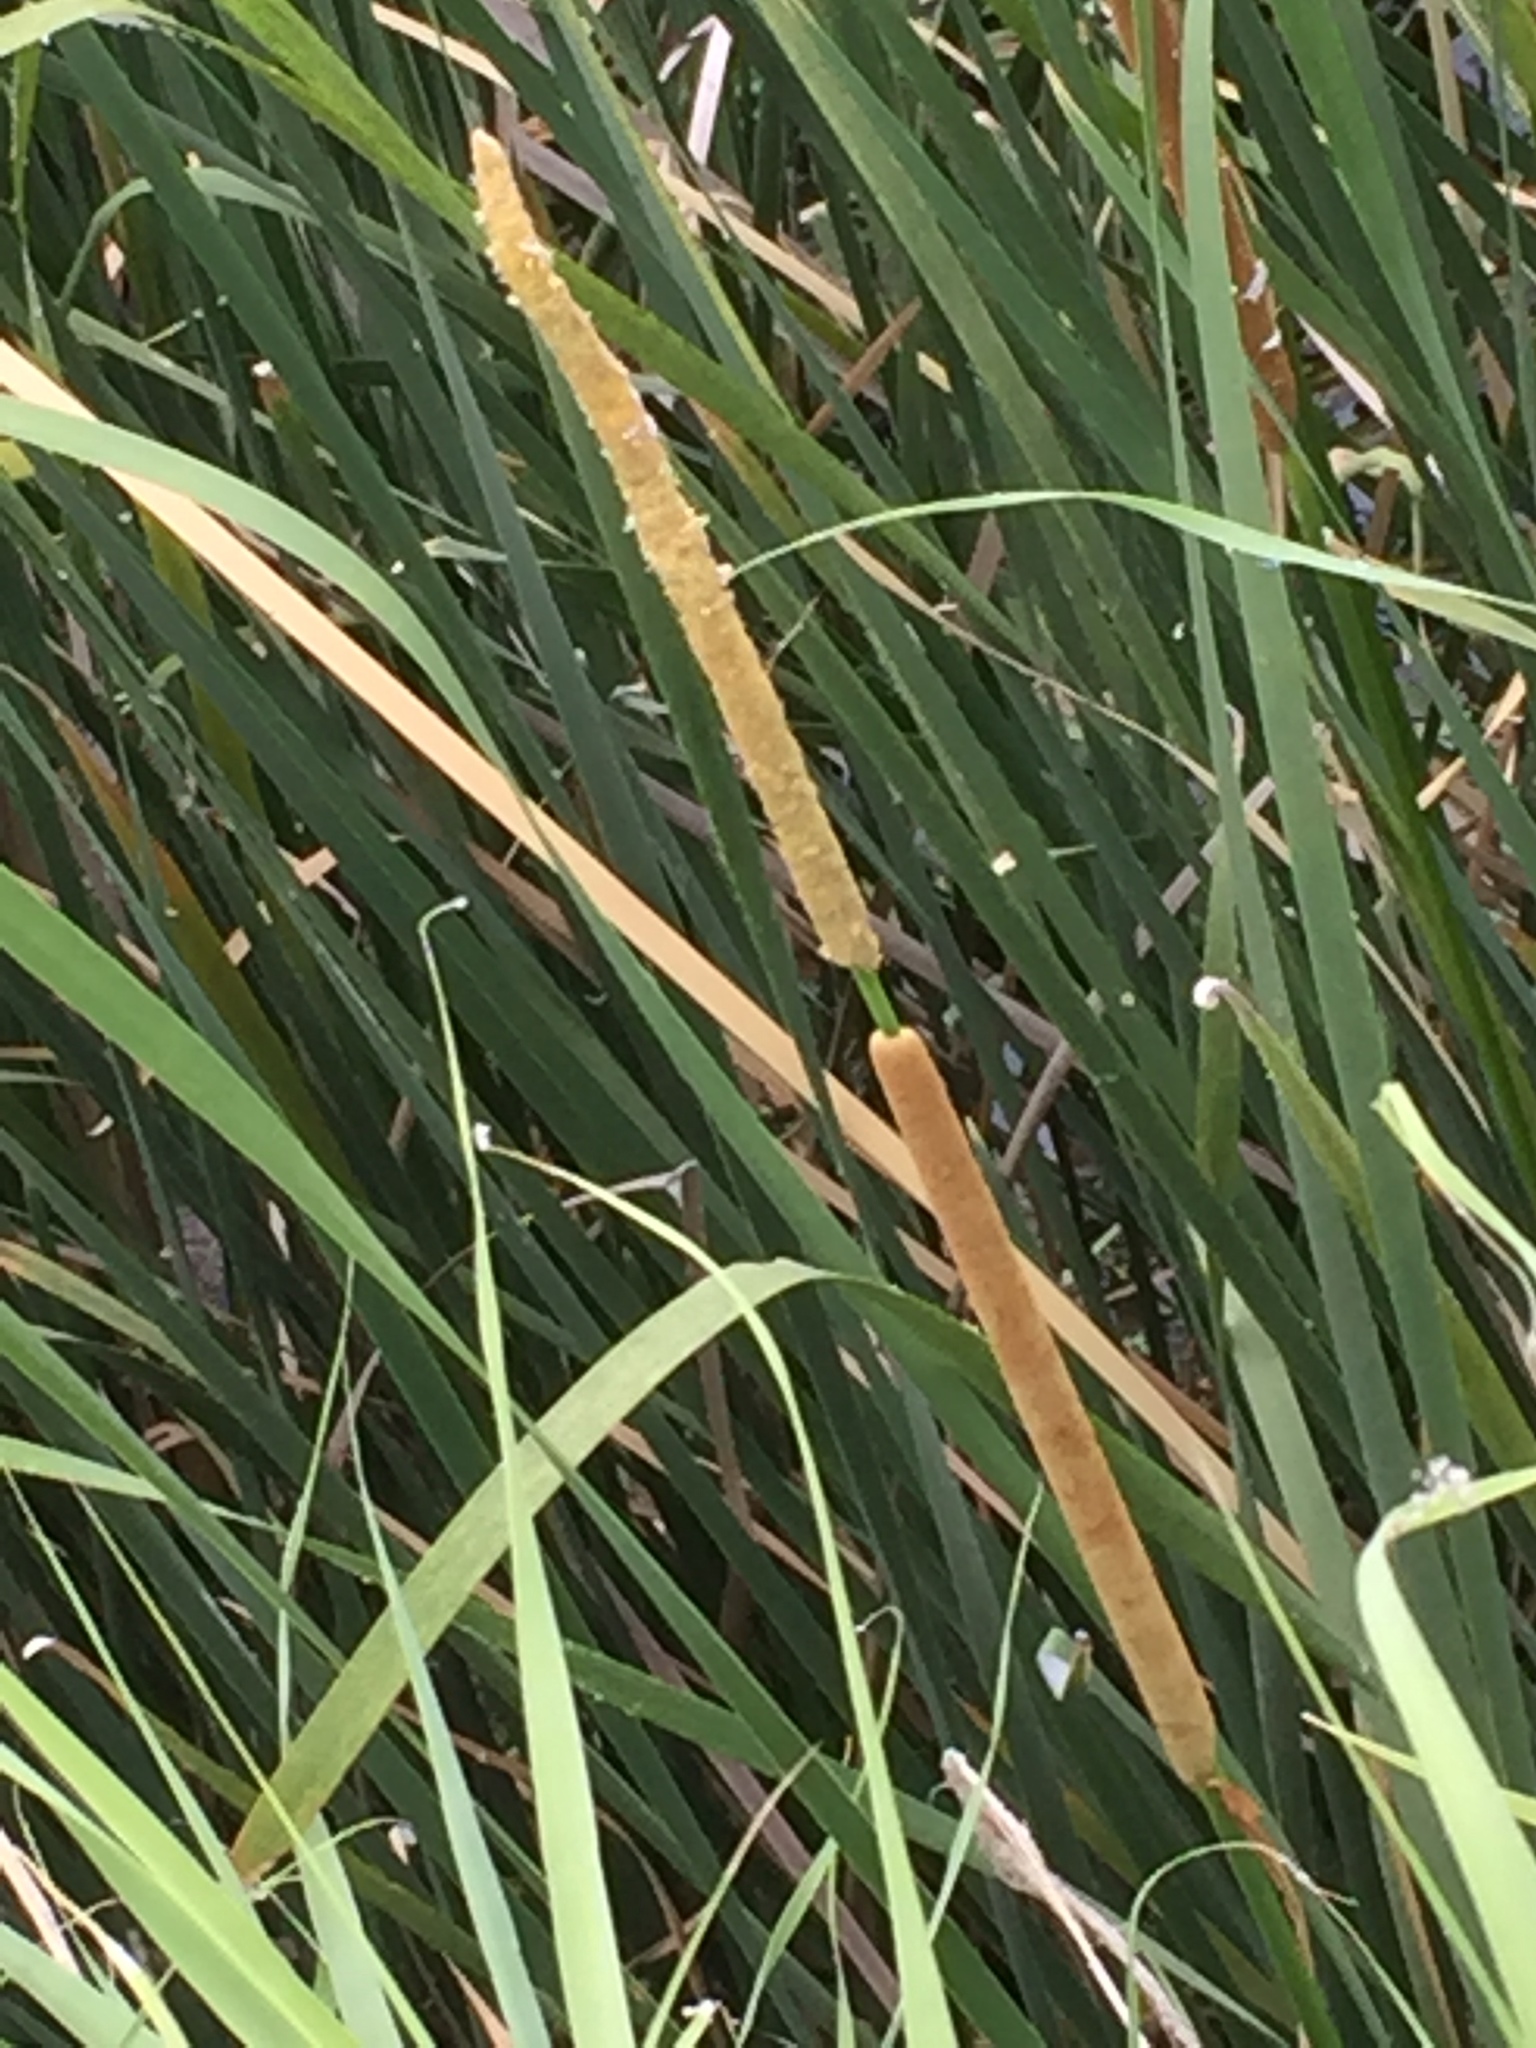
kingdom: Plantae
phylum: Tracheophyta
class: Liliopsida
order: Poales
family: Typhaceae
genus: Typha
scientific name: Typha angustifolia
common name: Lesser bulrush
